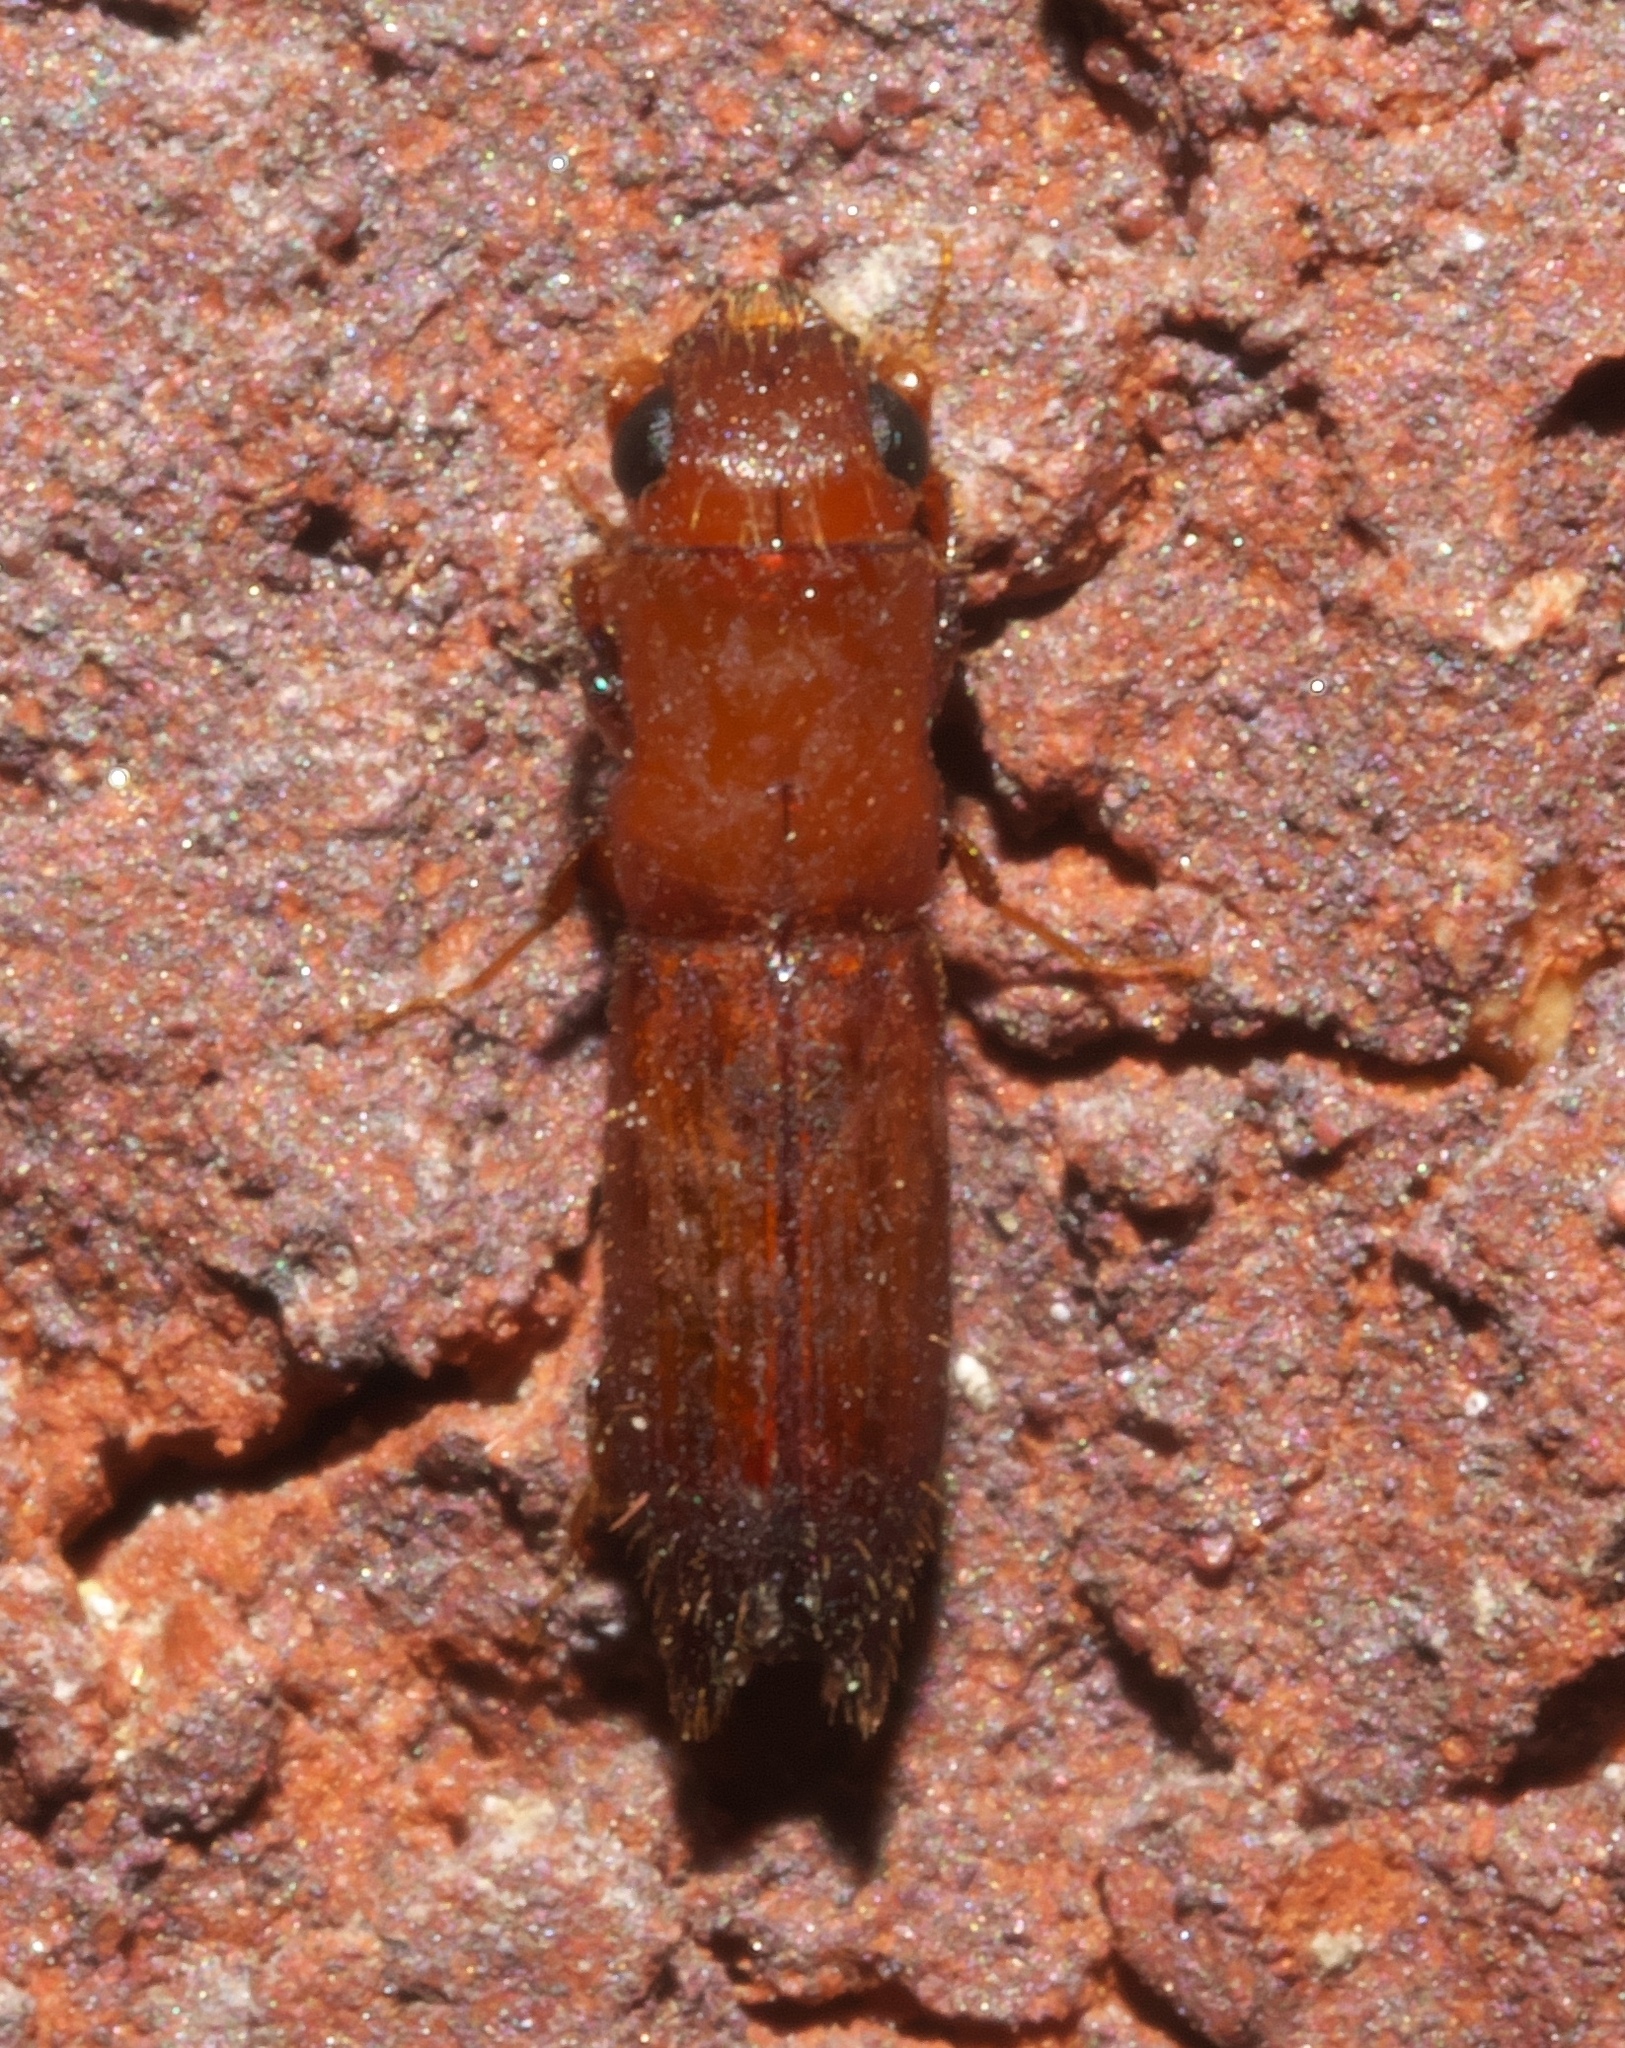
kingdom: Animalia
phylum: Arthropoda
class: Insecta
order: Coleoptera
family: Curculionidae
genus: Euplatypus
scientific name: Euplatypus compositus
